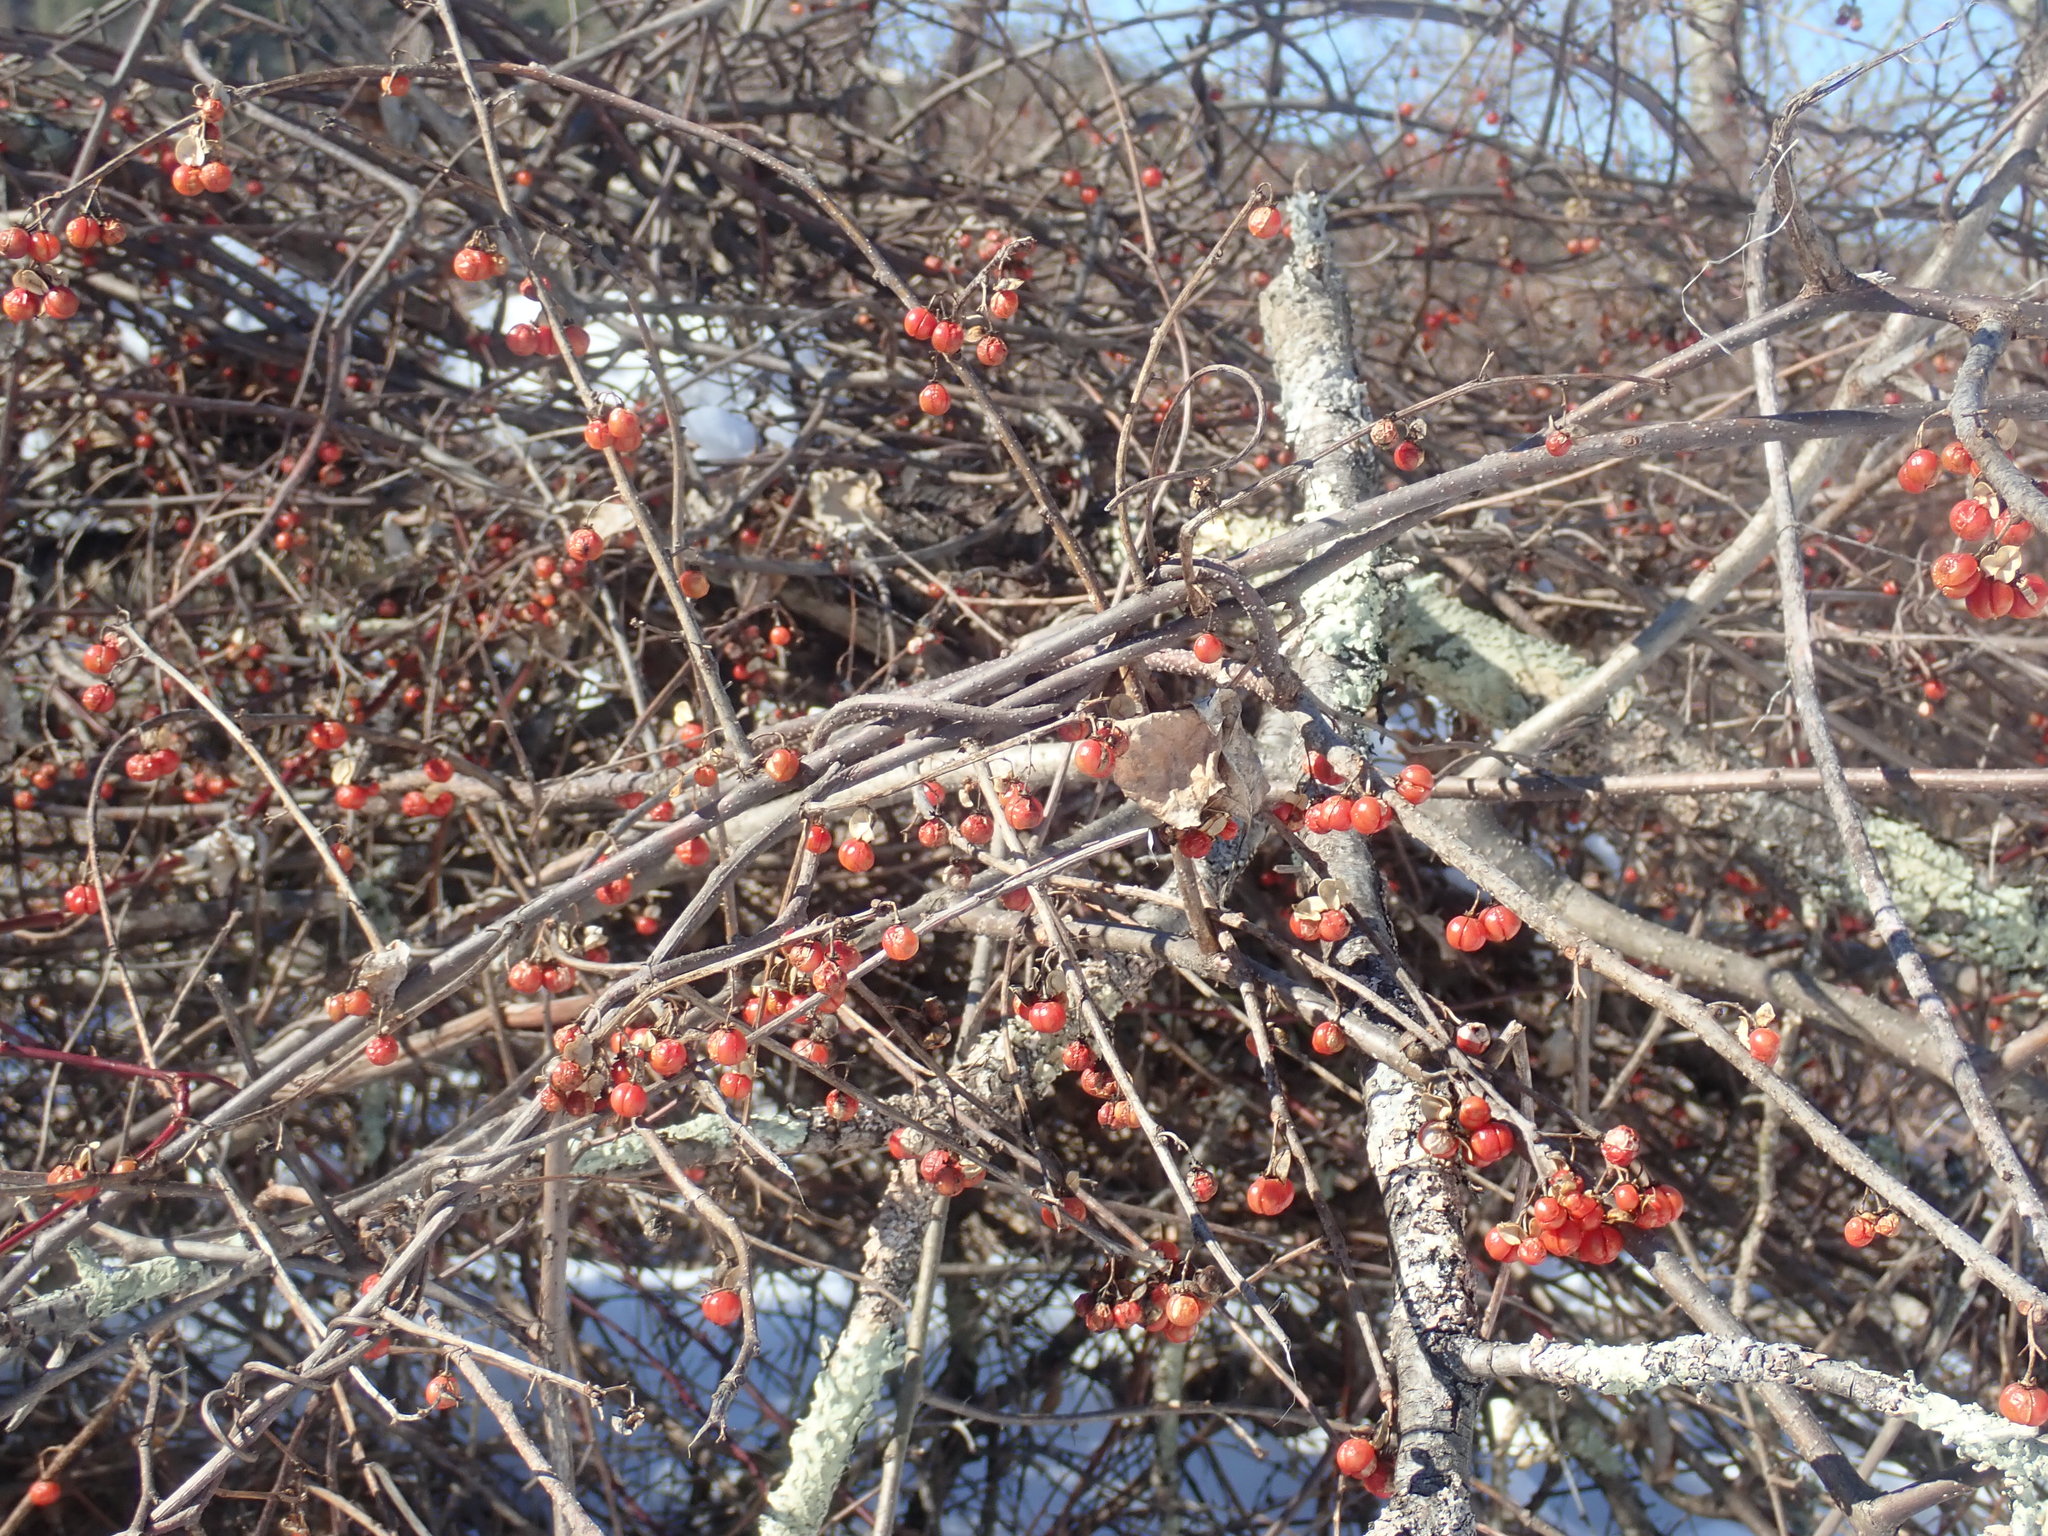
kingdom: Plantae
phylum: Tracheophyta
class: Magnoliopsida
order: Celastrales
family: Celastraceae
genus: Celastrus
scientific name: Celastrus orbiculatus
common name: Oriental bittersweet
